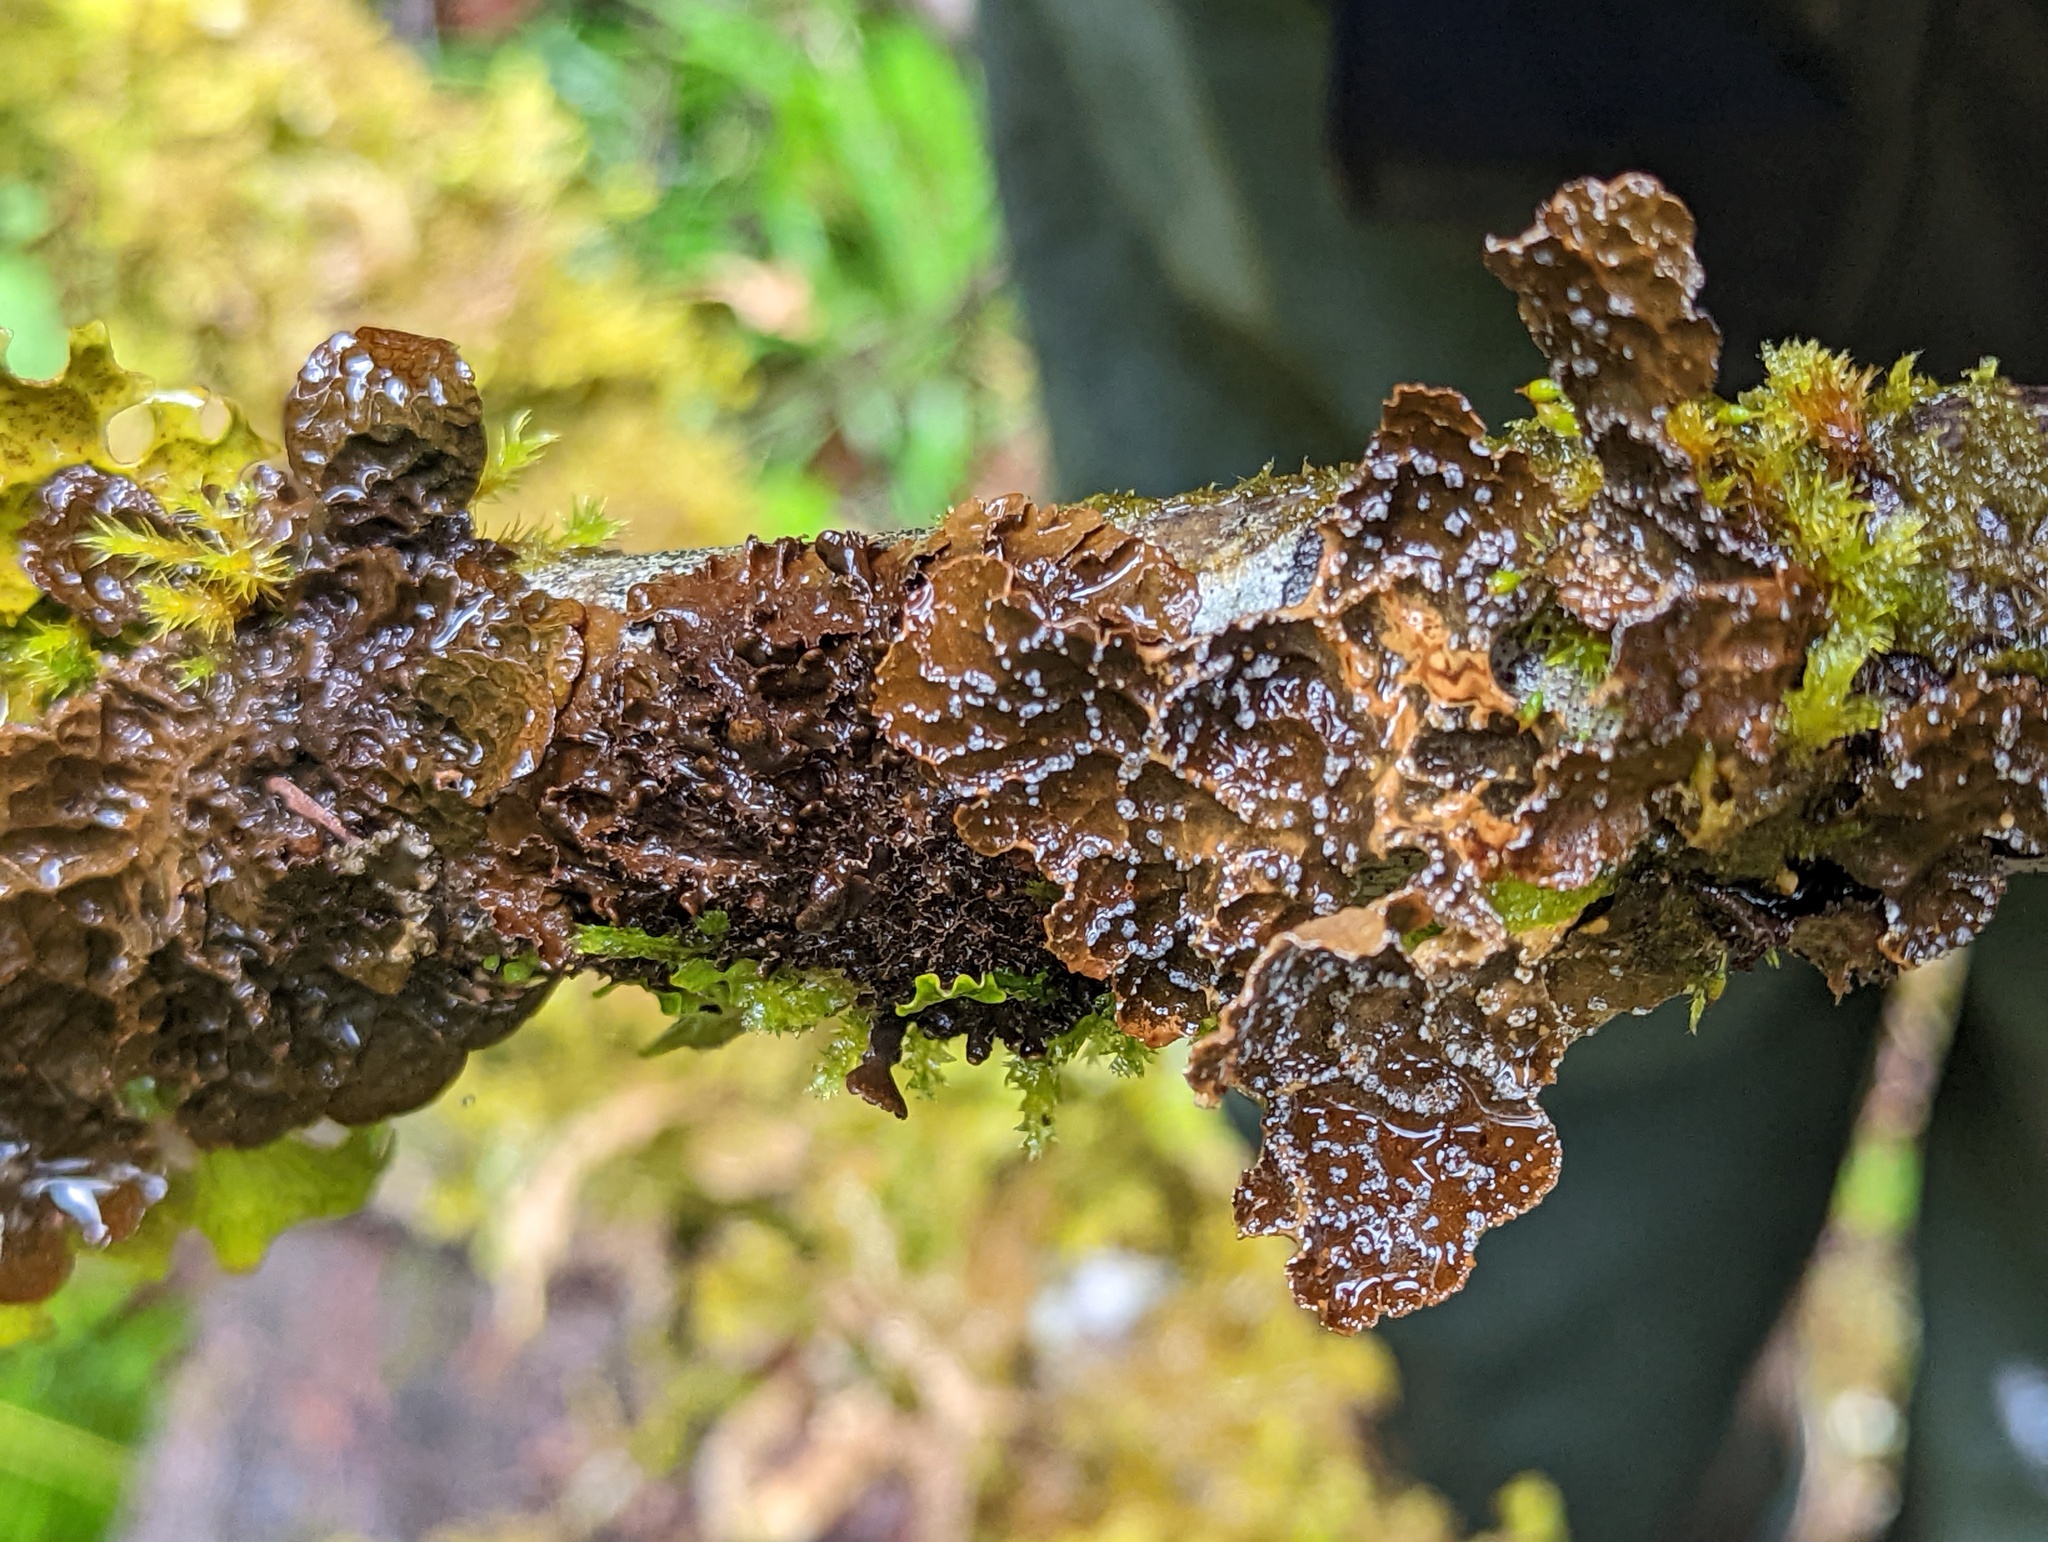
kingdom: Fungi
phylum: Ascomycota
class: Lecanoromycetes
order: Peltigerales
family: Lobariaceae
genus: Lobaria
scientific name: Lobaria anomala
